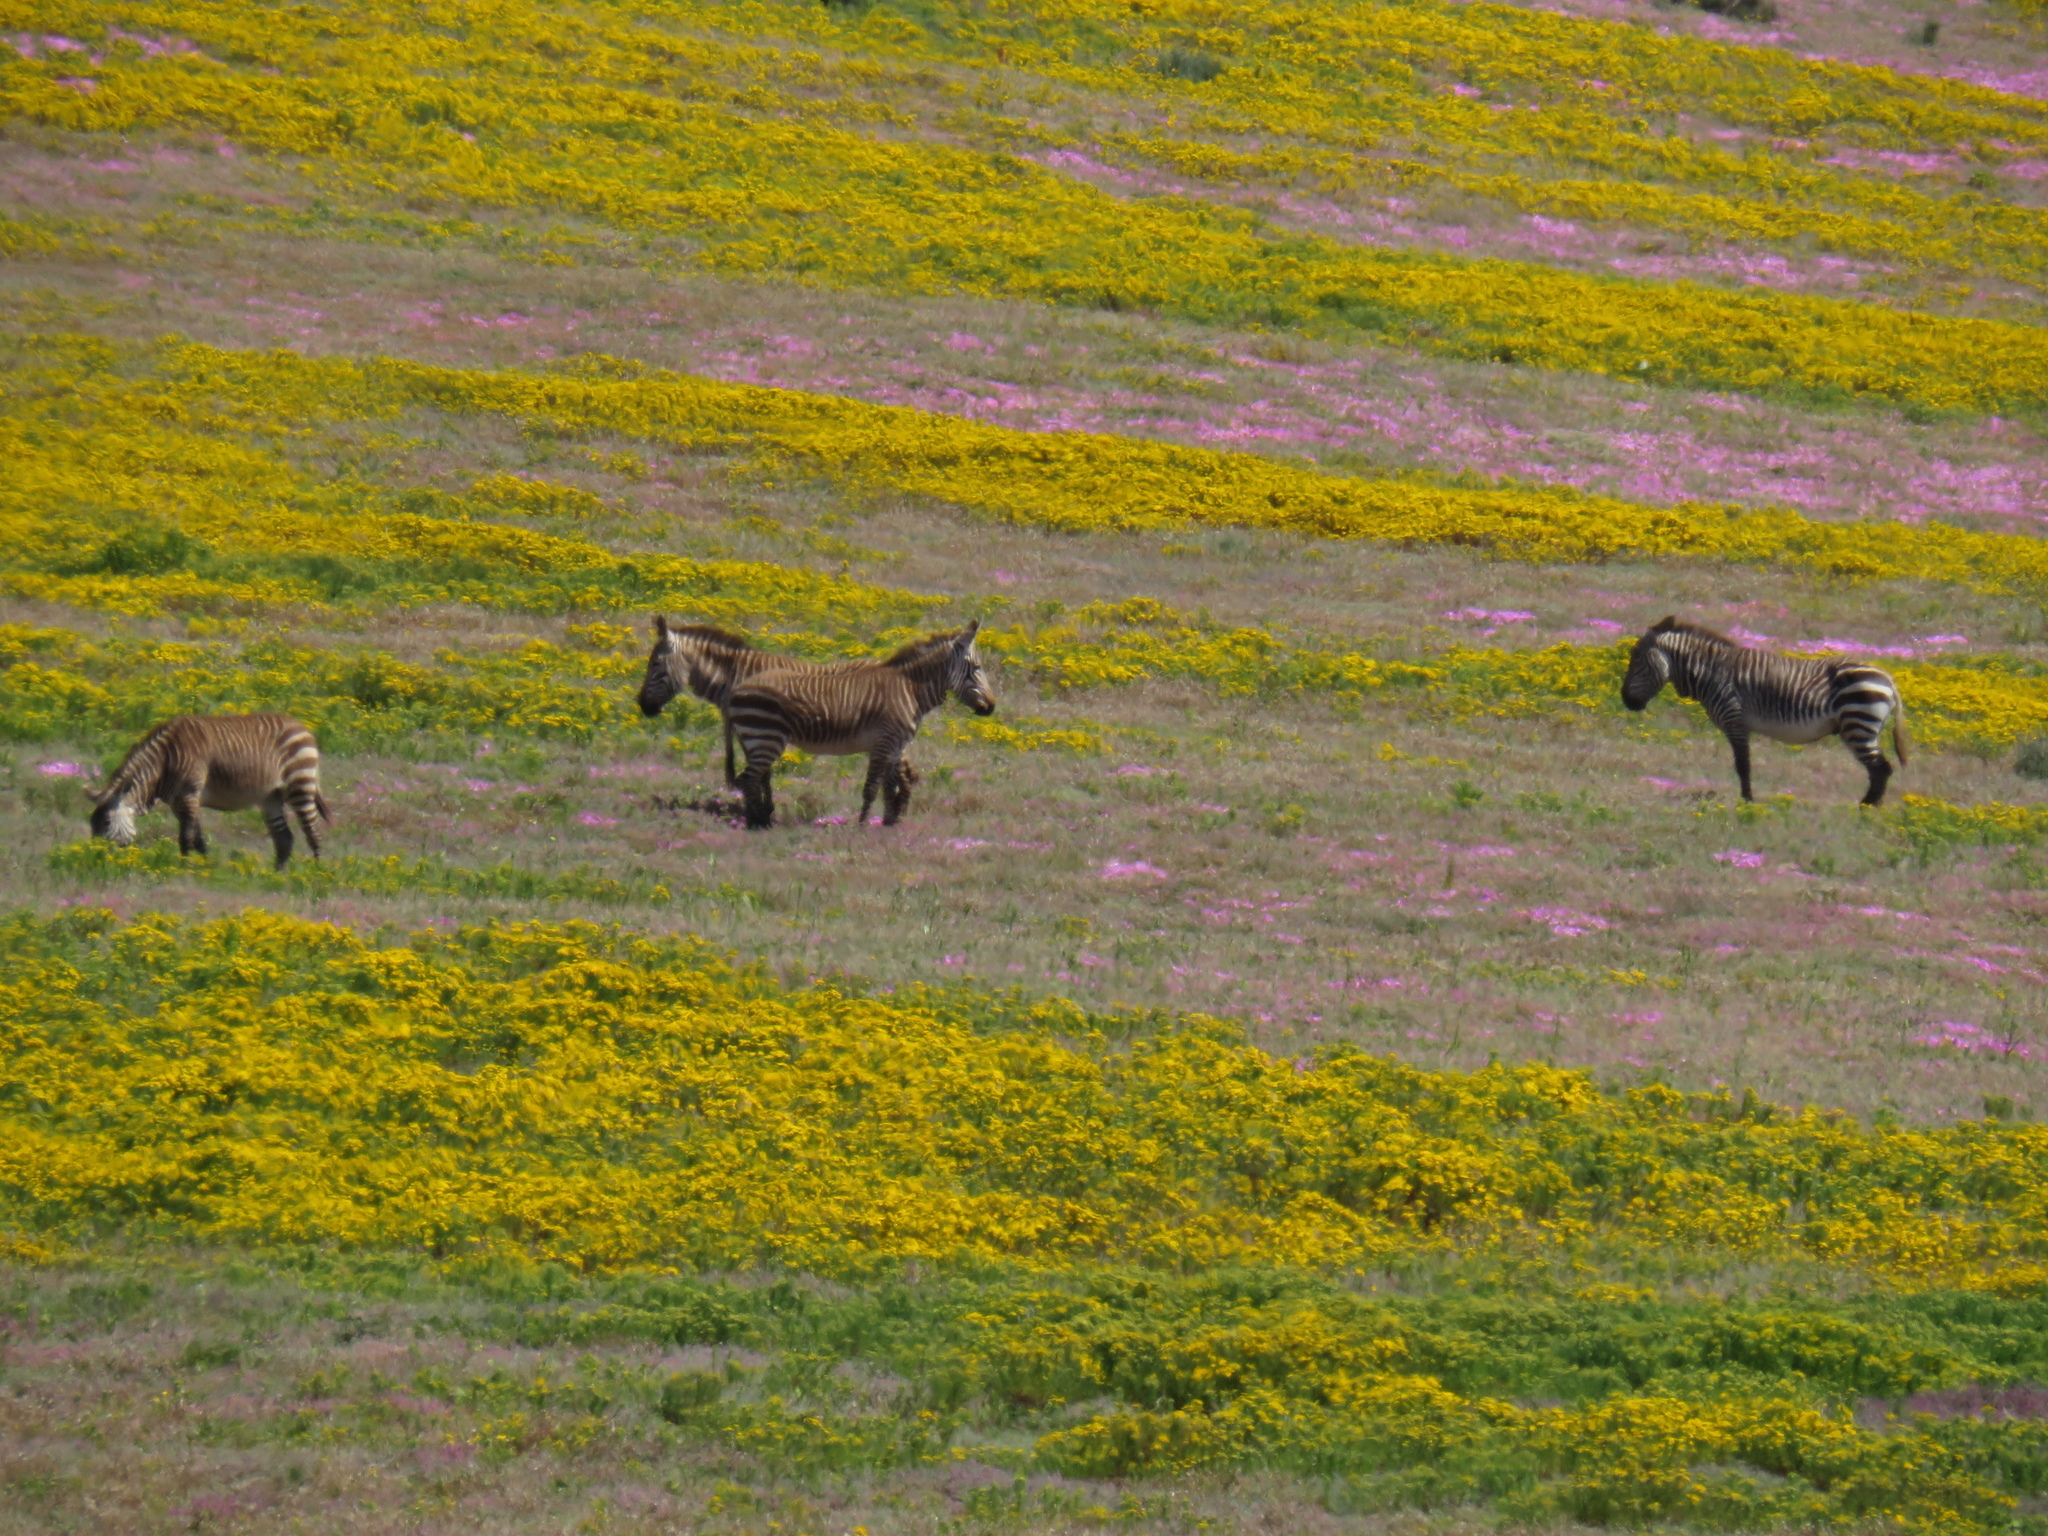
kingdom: Animalia
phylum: Chordata
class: Mammalia
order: Perissodactyla
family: Equidae
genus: Equus
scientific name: Equus zebra
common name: Mountain zebra
